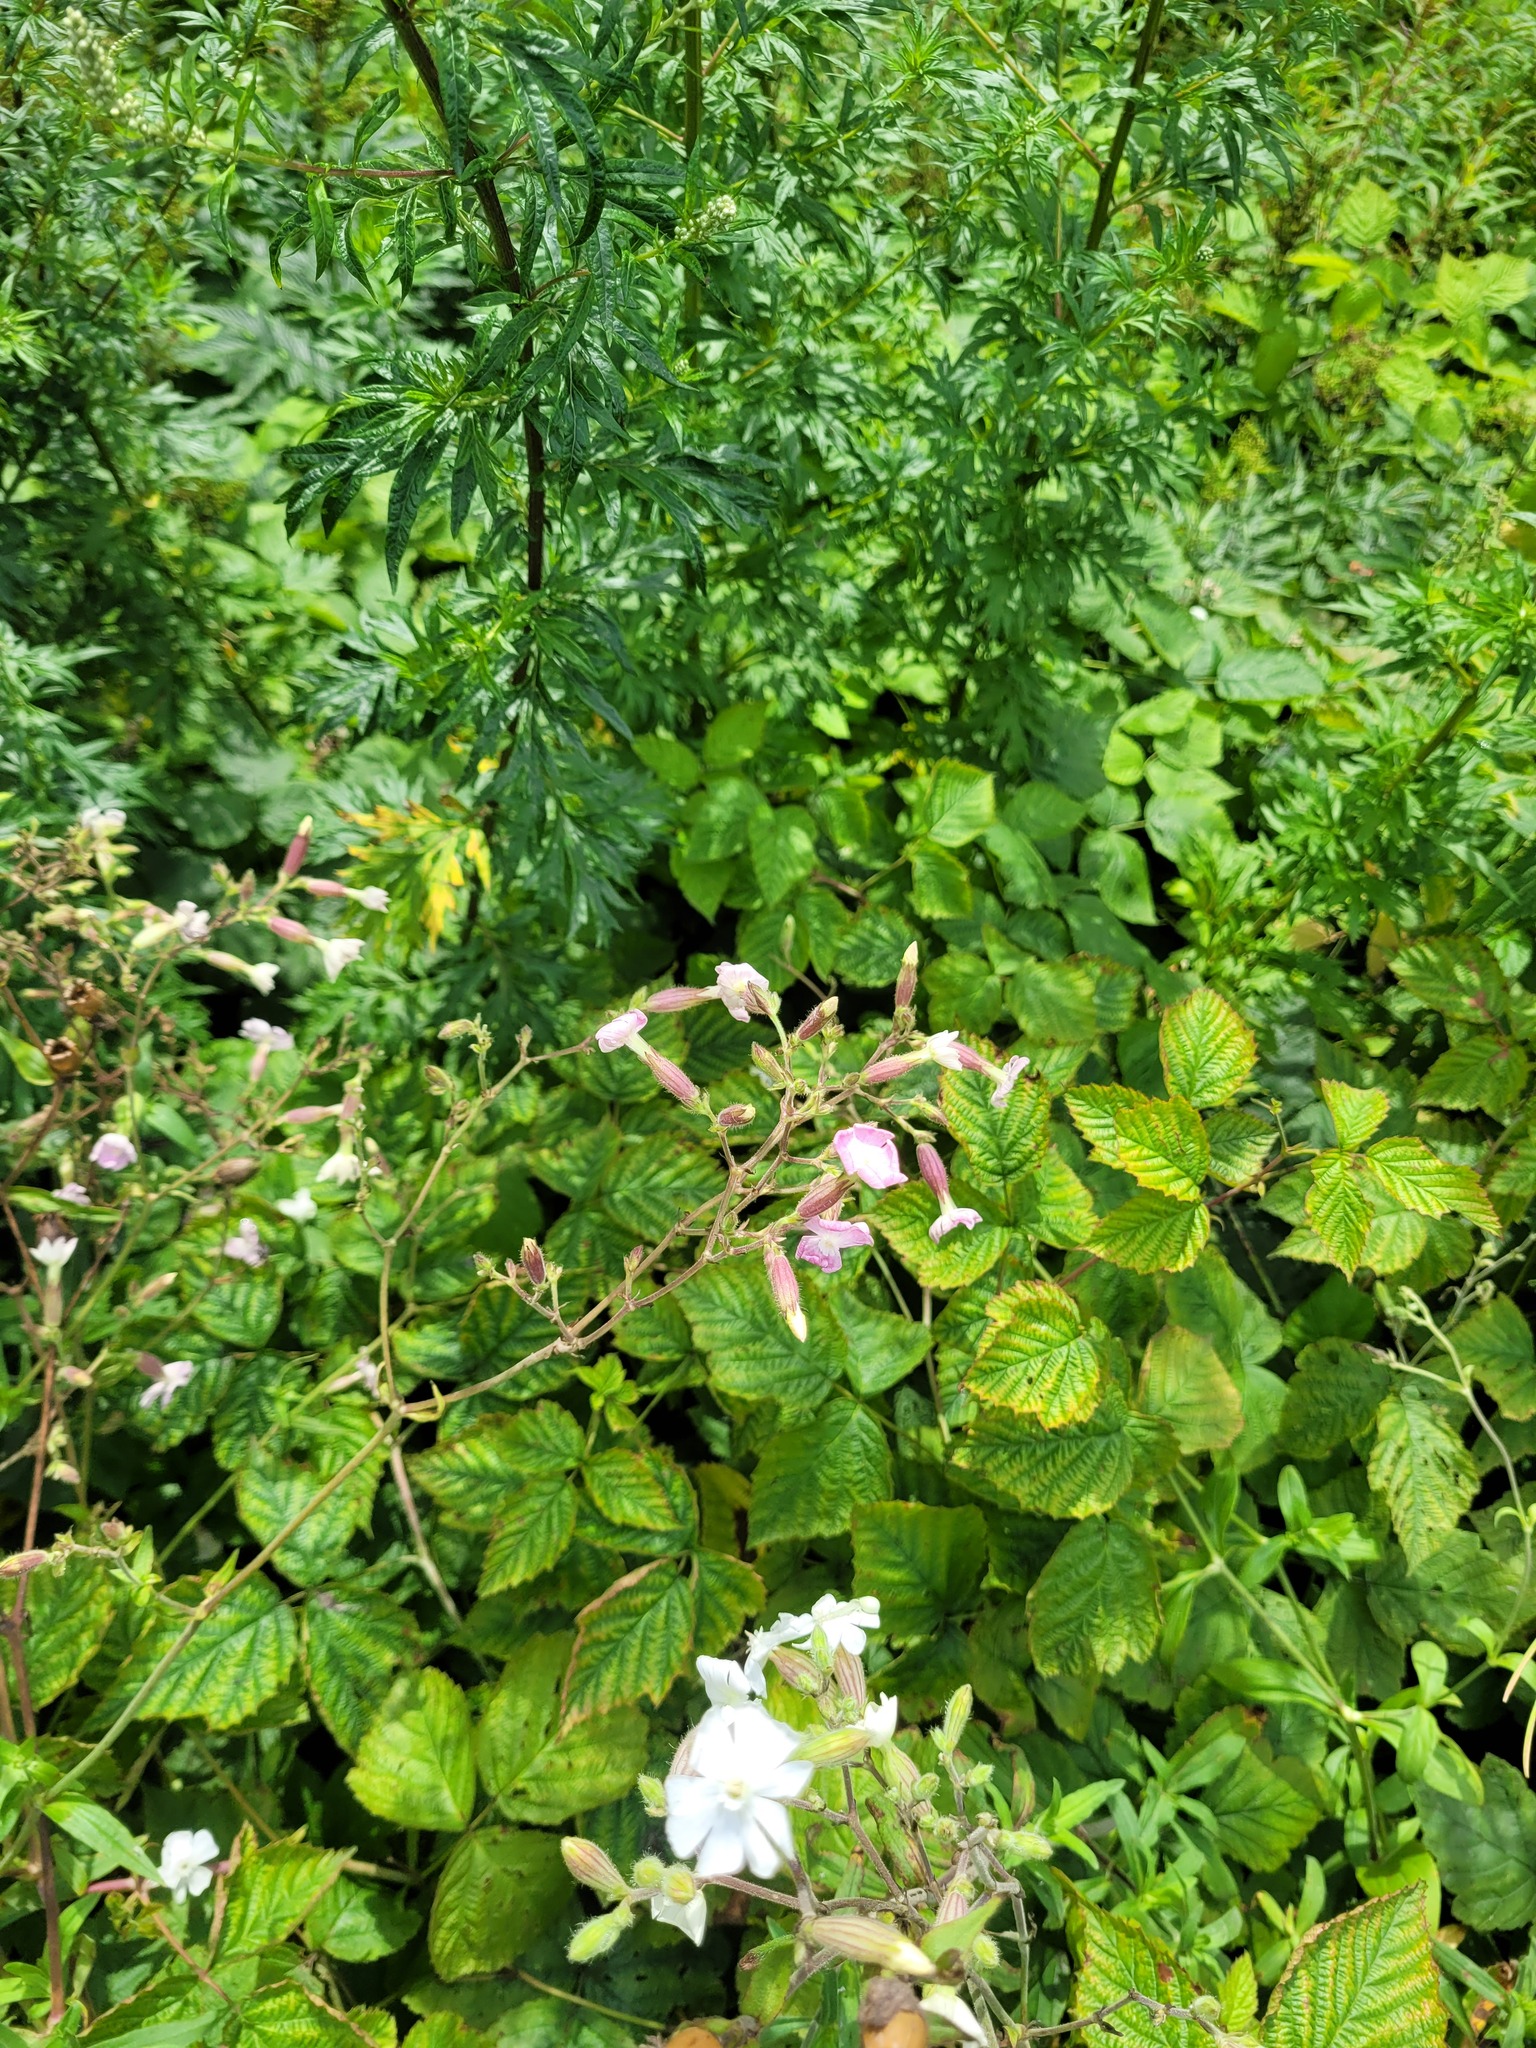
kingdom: Plantae
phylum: Tracheophyta
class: Magnoliopsida
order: Caryophyllales
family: Caryophyllaceae
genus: Silene
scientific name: Silene hampeana
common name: Catchfly
